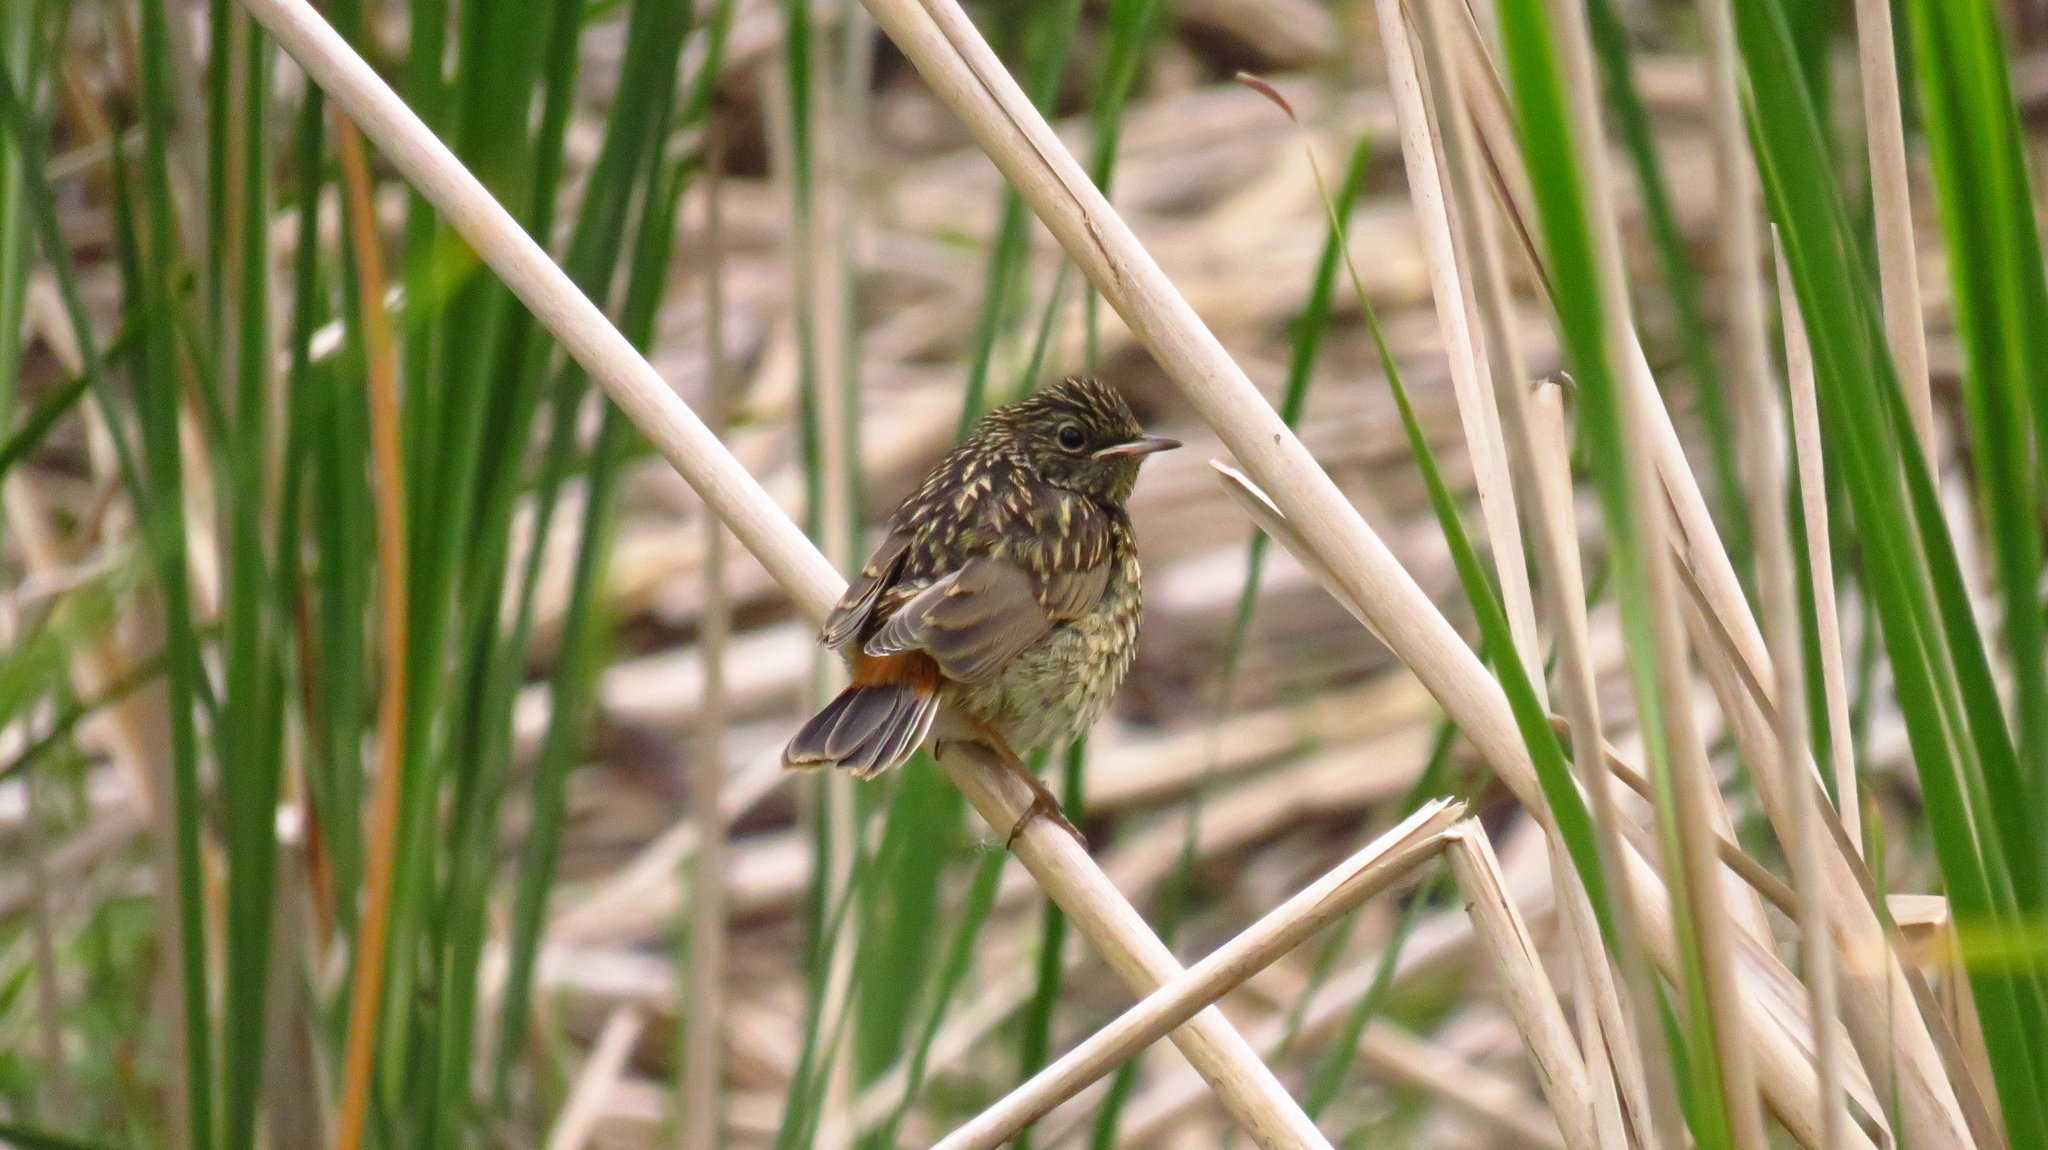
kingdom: Animalia
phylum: Chordata
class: Aves
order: Passeriformes
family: Muscicapidae
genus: Luscinia
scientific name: Luscinia svecica
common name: Bluethroat
